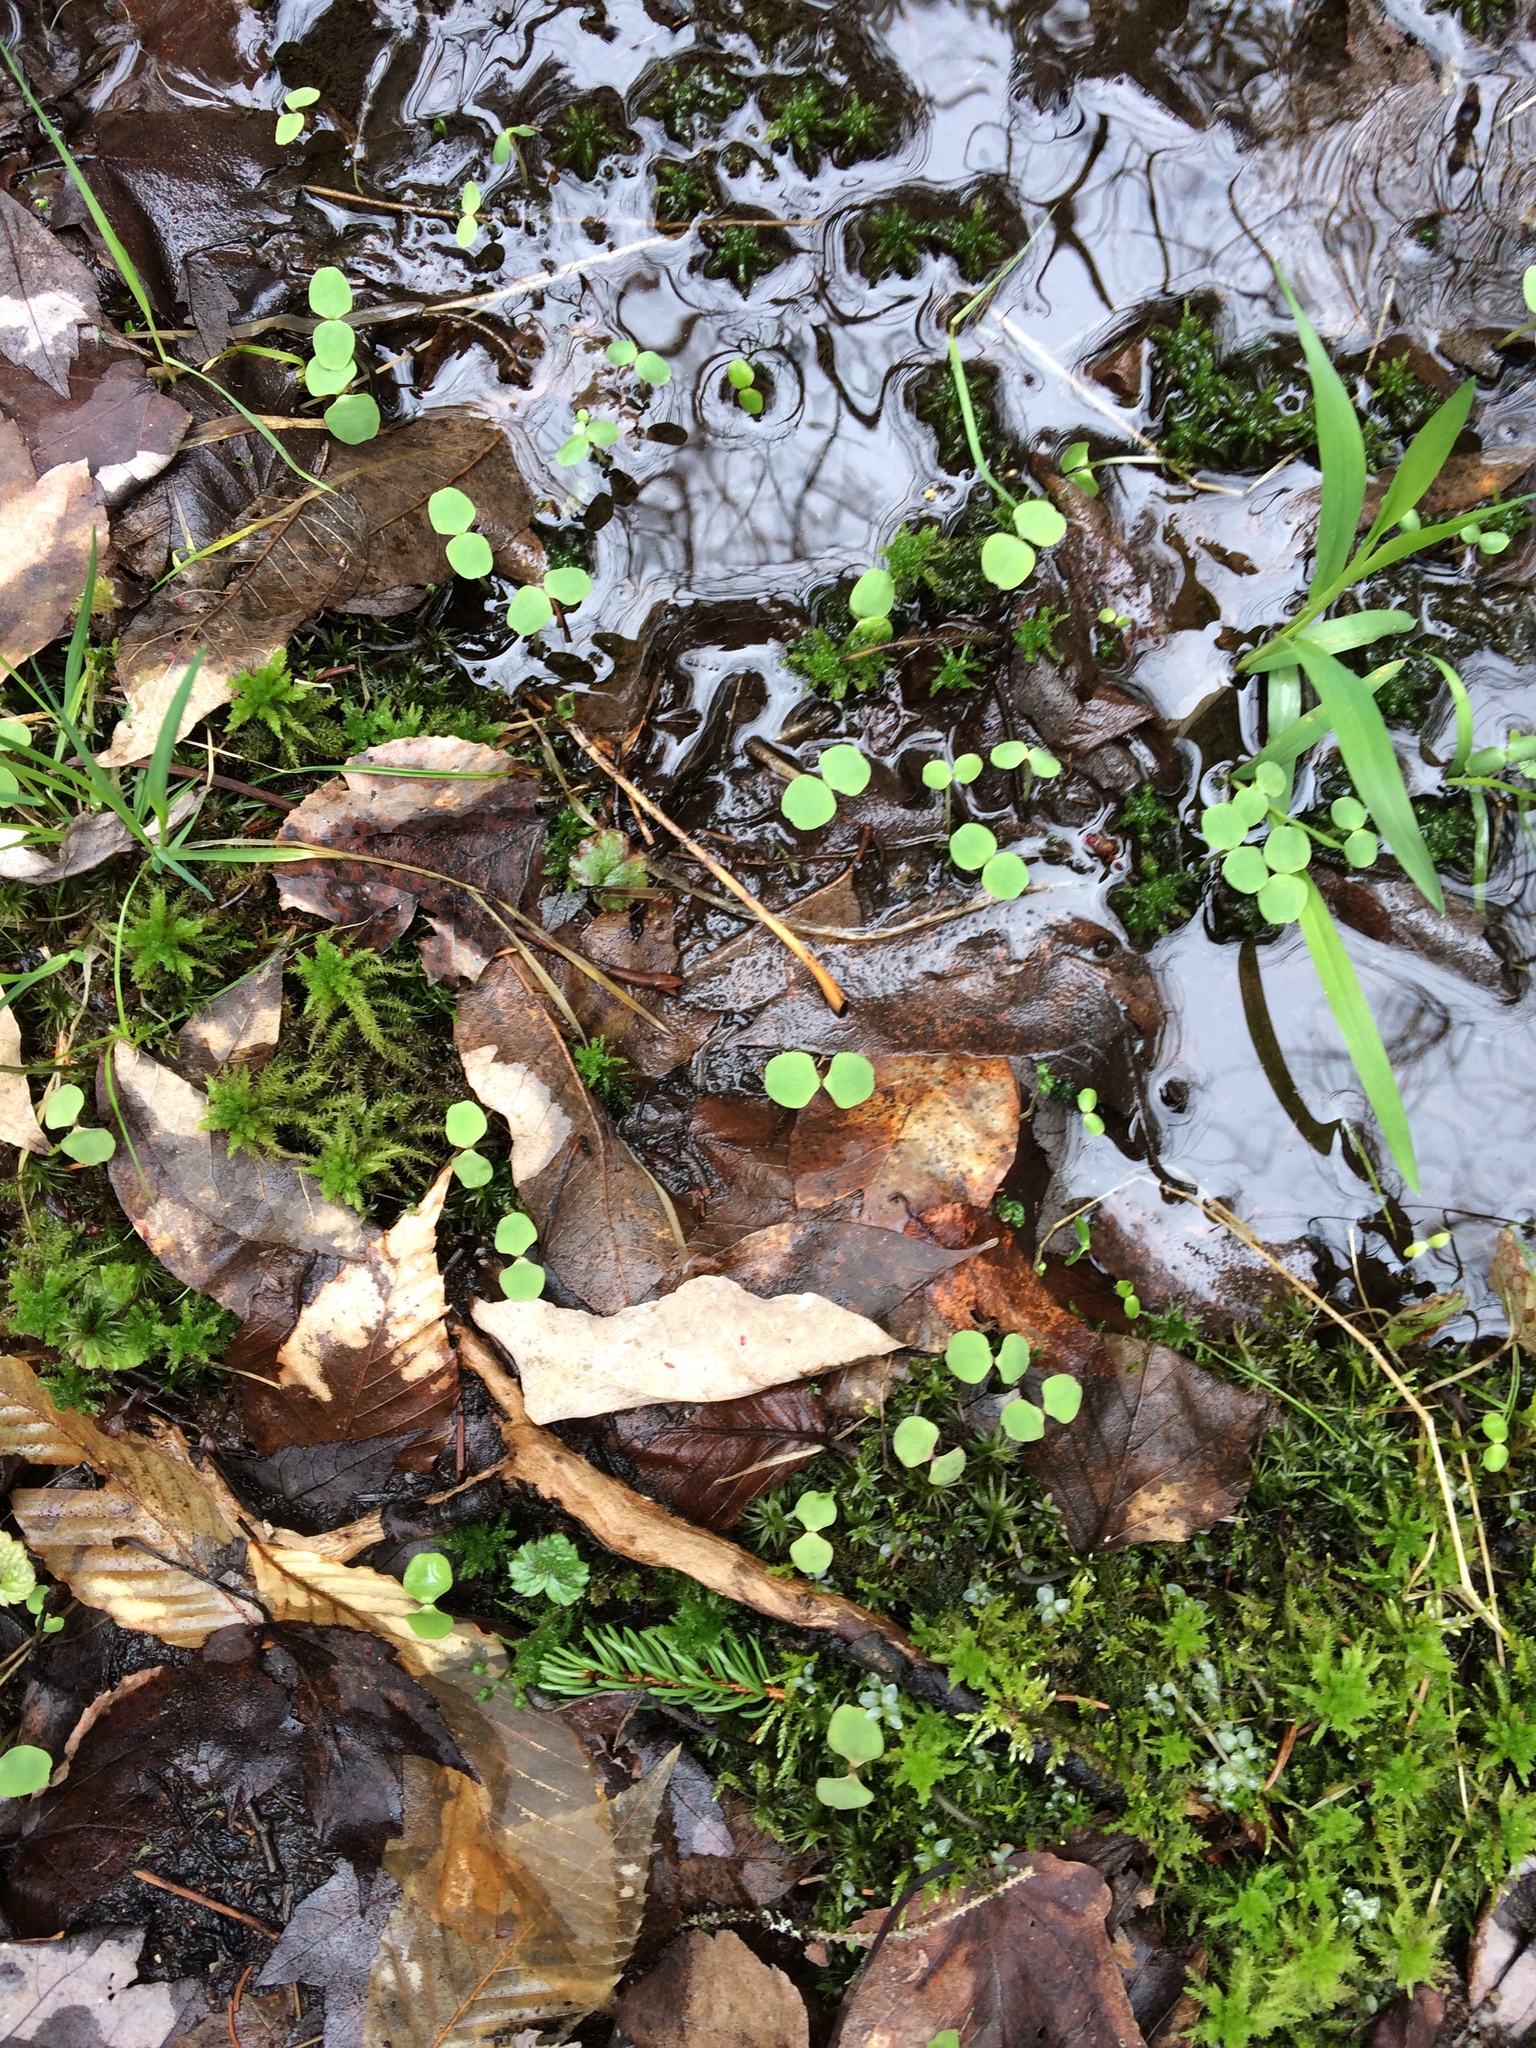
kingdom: Plantae
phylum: Tracheophyta
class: Magnoliopsida
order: Ericales
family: Balsaminaceae
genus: Impatiens
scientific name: Impatiens capensis
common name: Orange balsam
